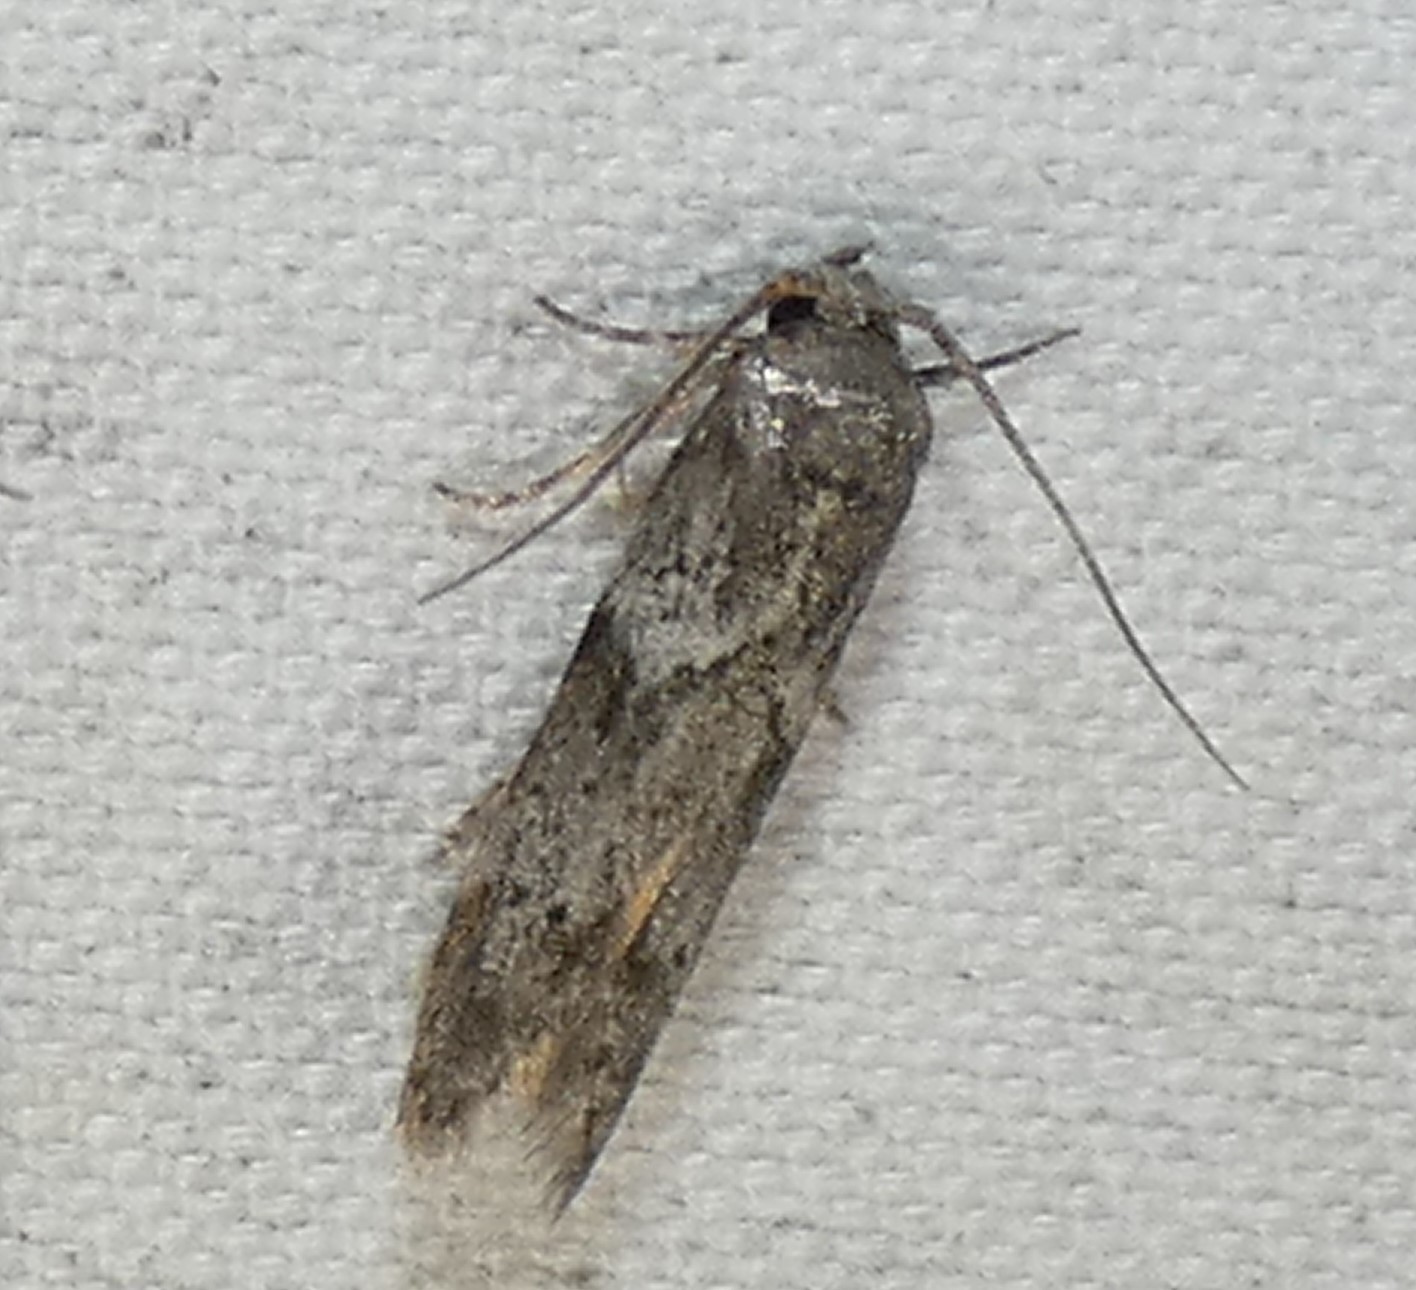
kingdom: Animalia
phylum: Arthropoda
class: Insecta
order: Lepidoptera
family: Blastobasidae
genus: Blastobasis
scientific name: Blastobasis glandulella
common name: Acorn moth
